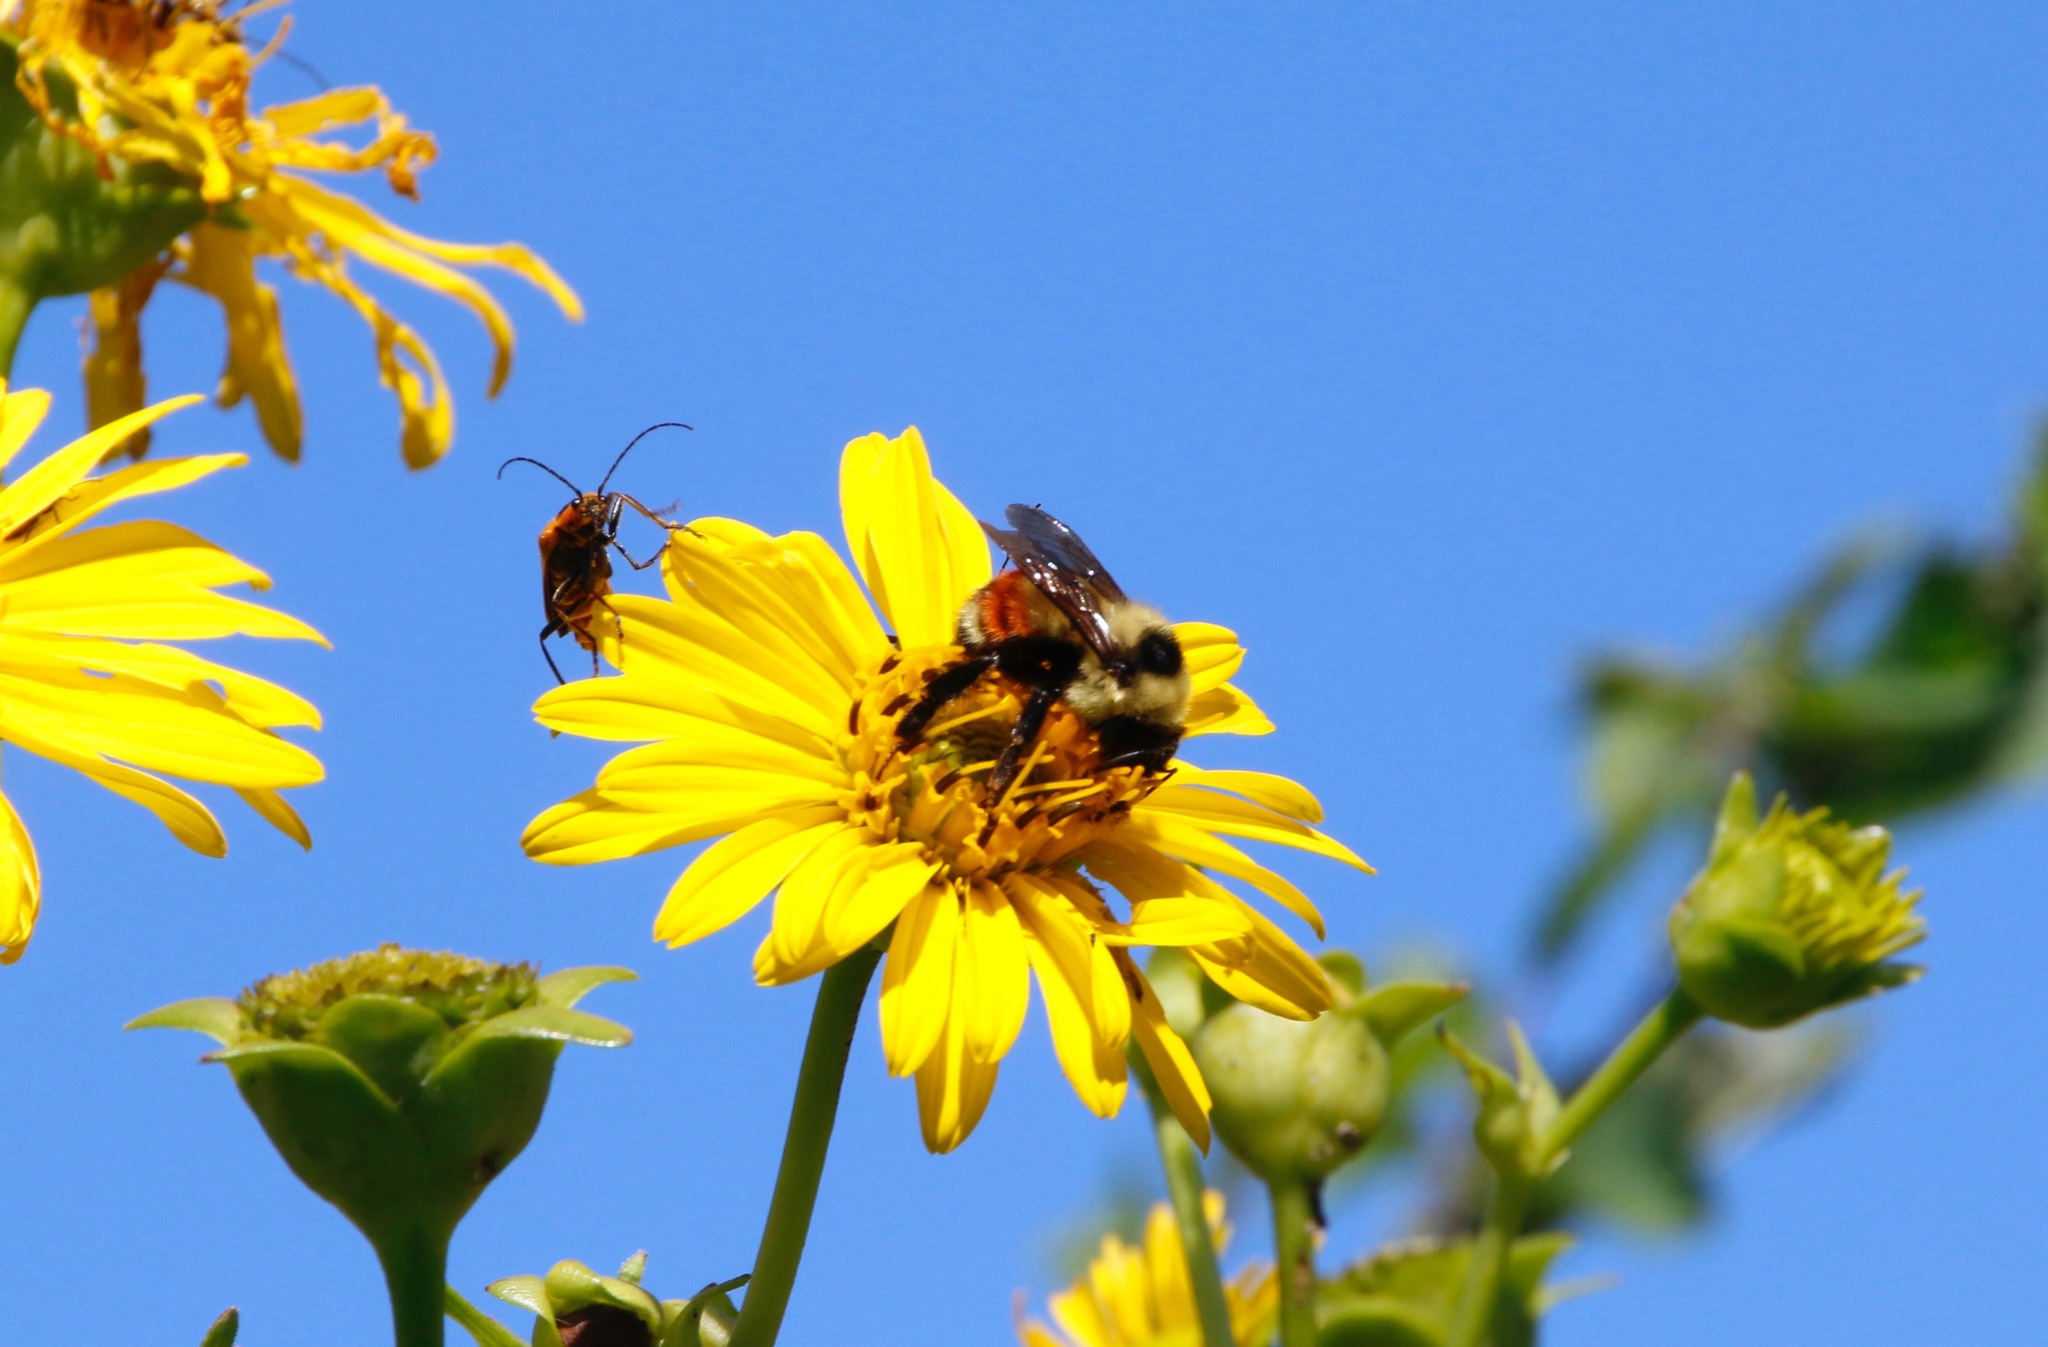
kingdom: Animalia
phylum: Arthropoda
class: Insecta
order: Hymenoptera
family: Apidae
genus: Bombus
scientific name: Bombus rufocinctus
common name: Red-belted bumble bee
